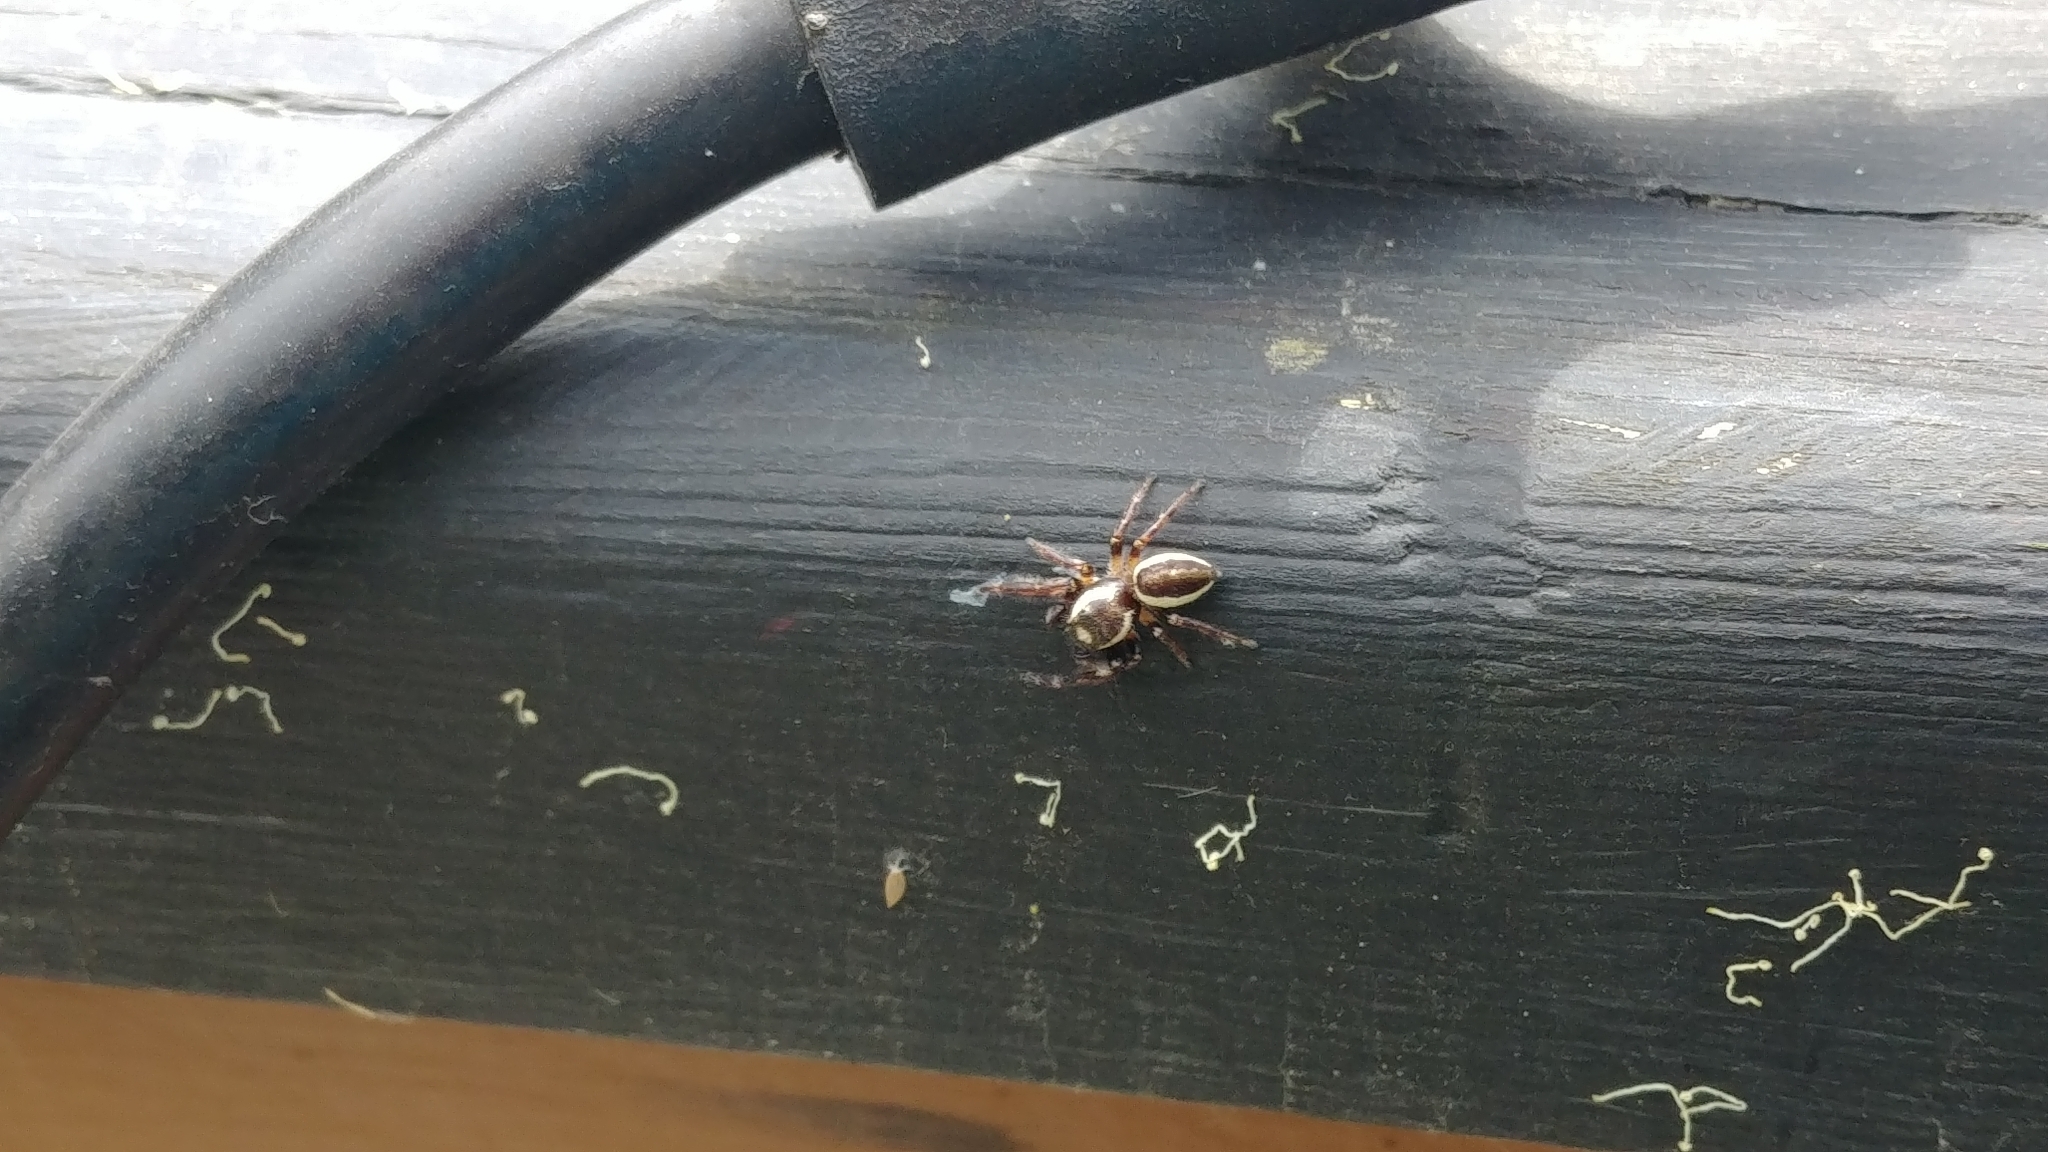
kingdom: Animalia
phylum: Arthropoda
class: Arachnida
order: Araneae
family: Salticidae
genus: Eris
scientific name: Eris militaris
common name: Bronze jumper
